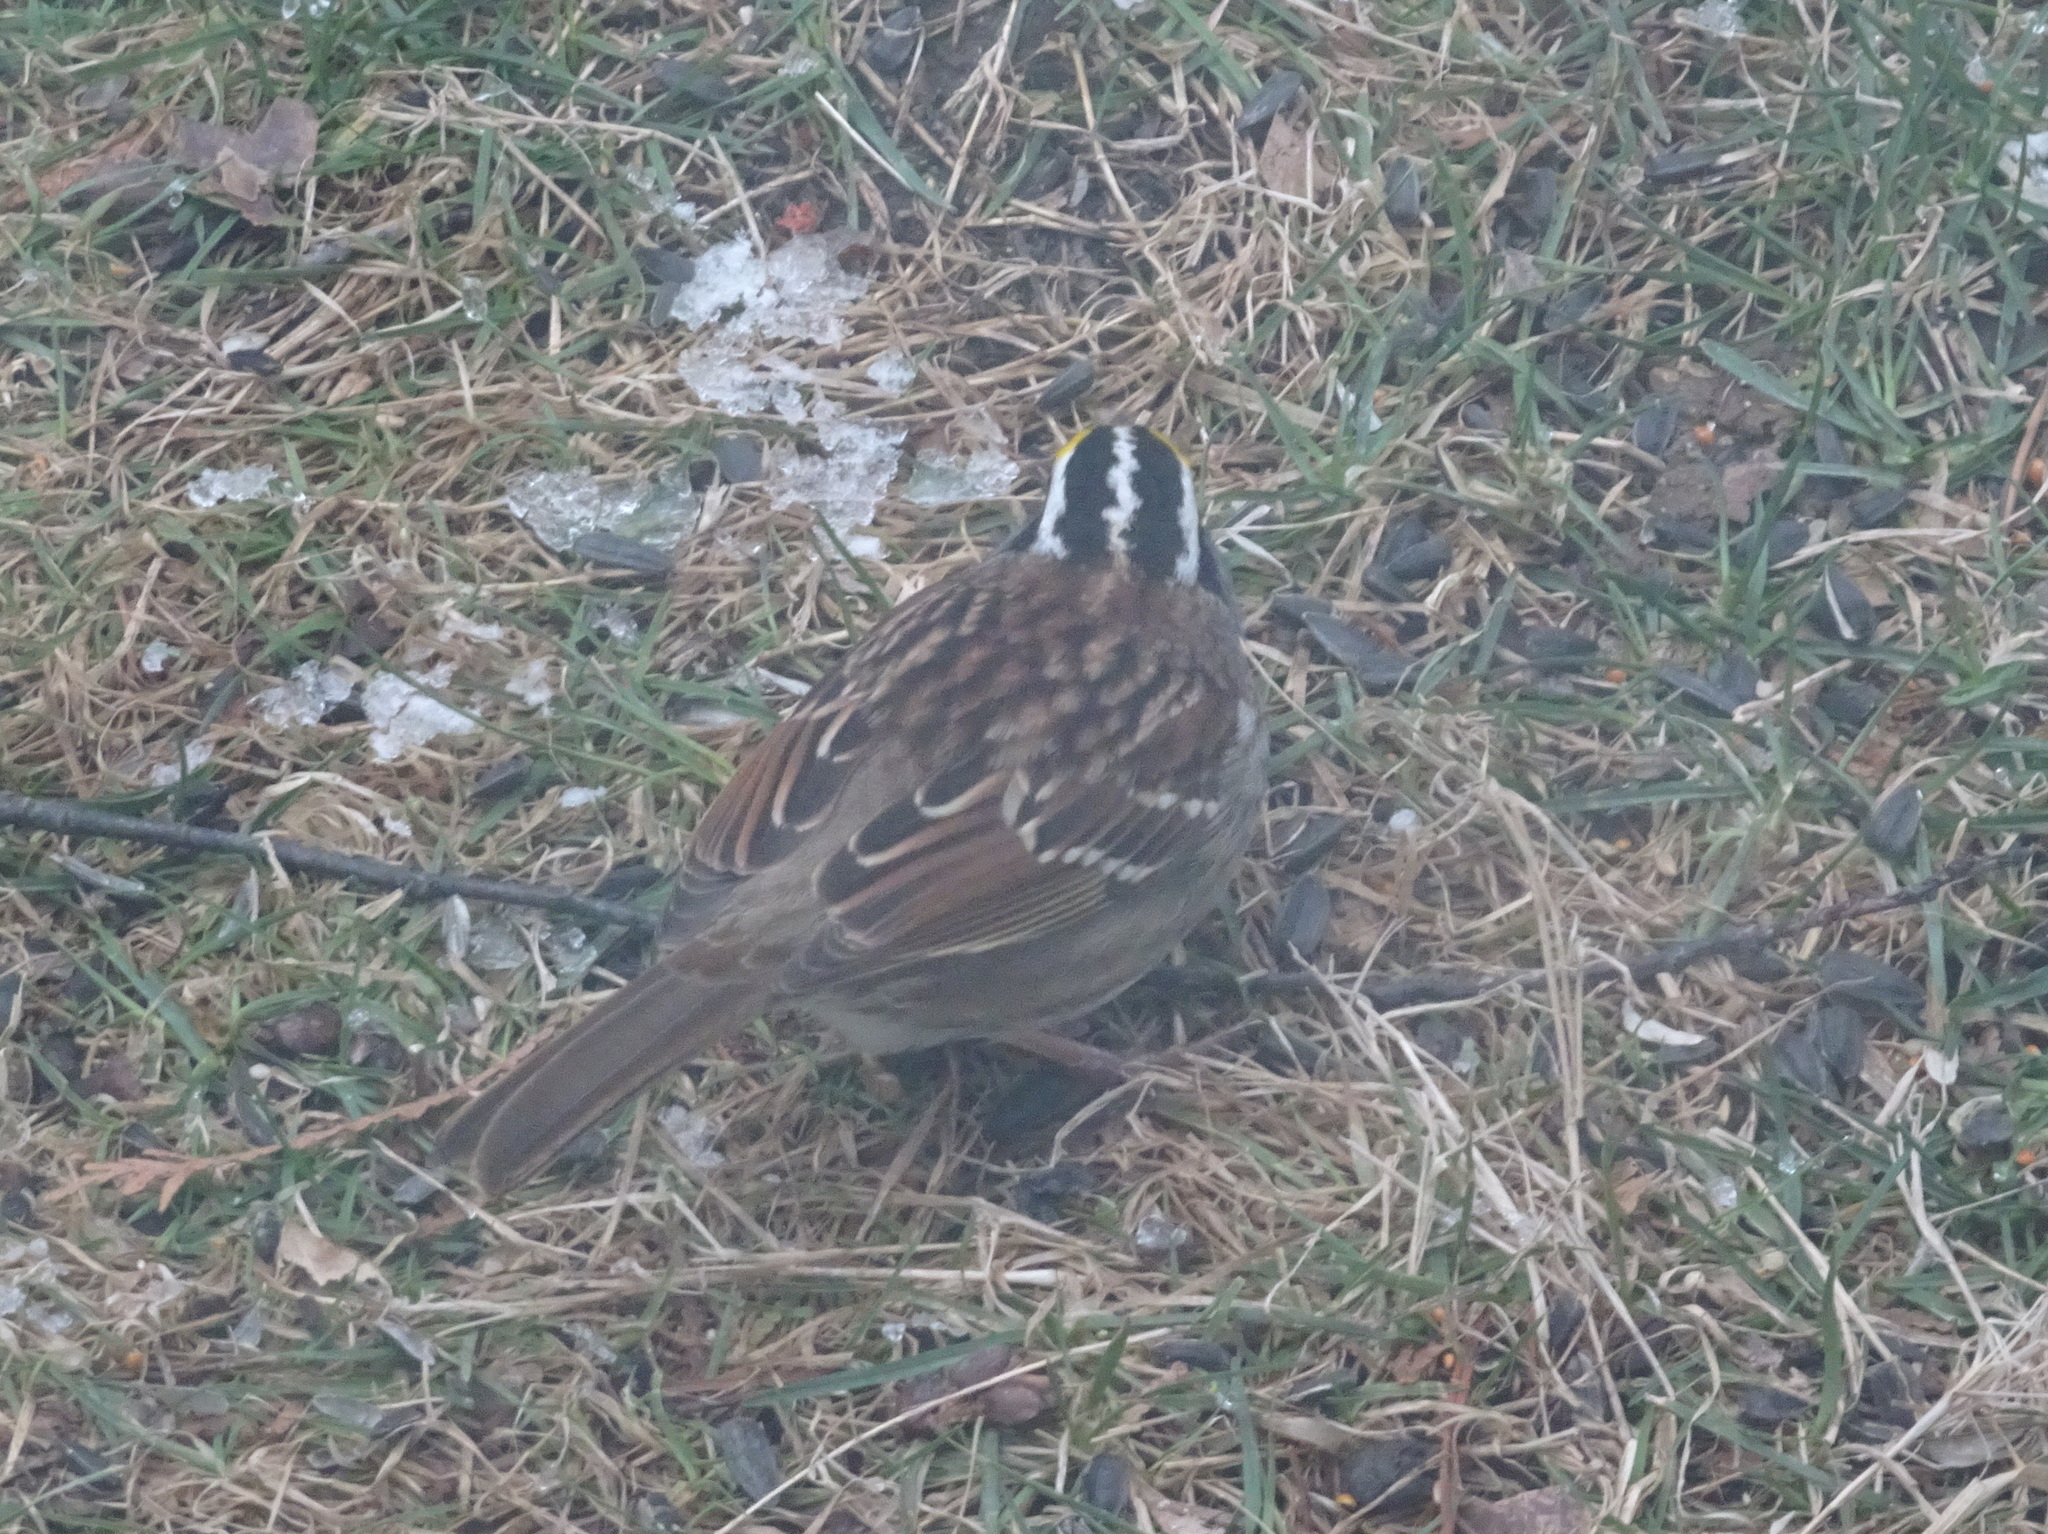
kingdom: Animalia
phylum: Chordata
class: Aves
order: Passeriformes
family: Passerellidae
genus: Zonotrichia
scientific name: Zonotrichia albicollis
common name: White-throated sparrow
